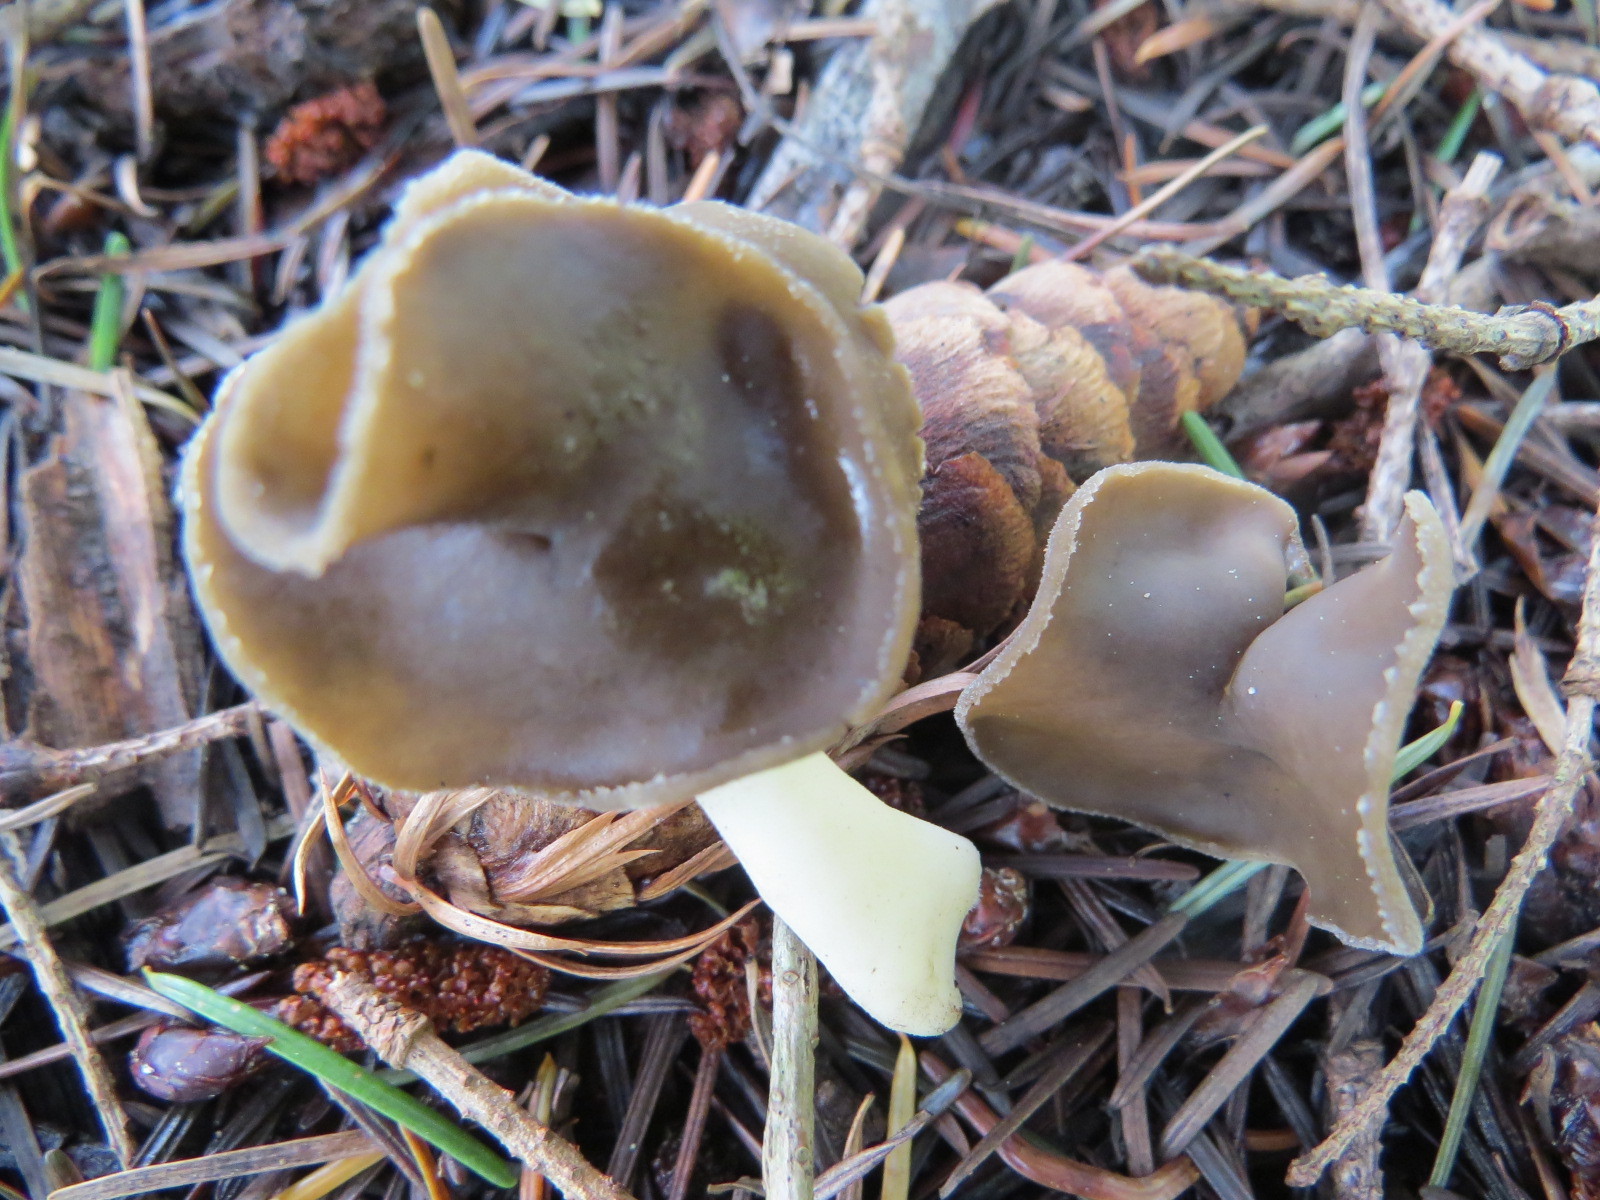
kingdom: Fungi
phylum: Ascomycota
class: Pezizomycetes
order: Pezizales
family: Helvellaceae
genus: Helvella
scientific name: Helvella compressa
